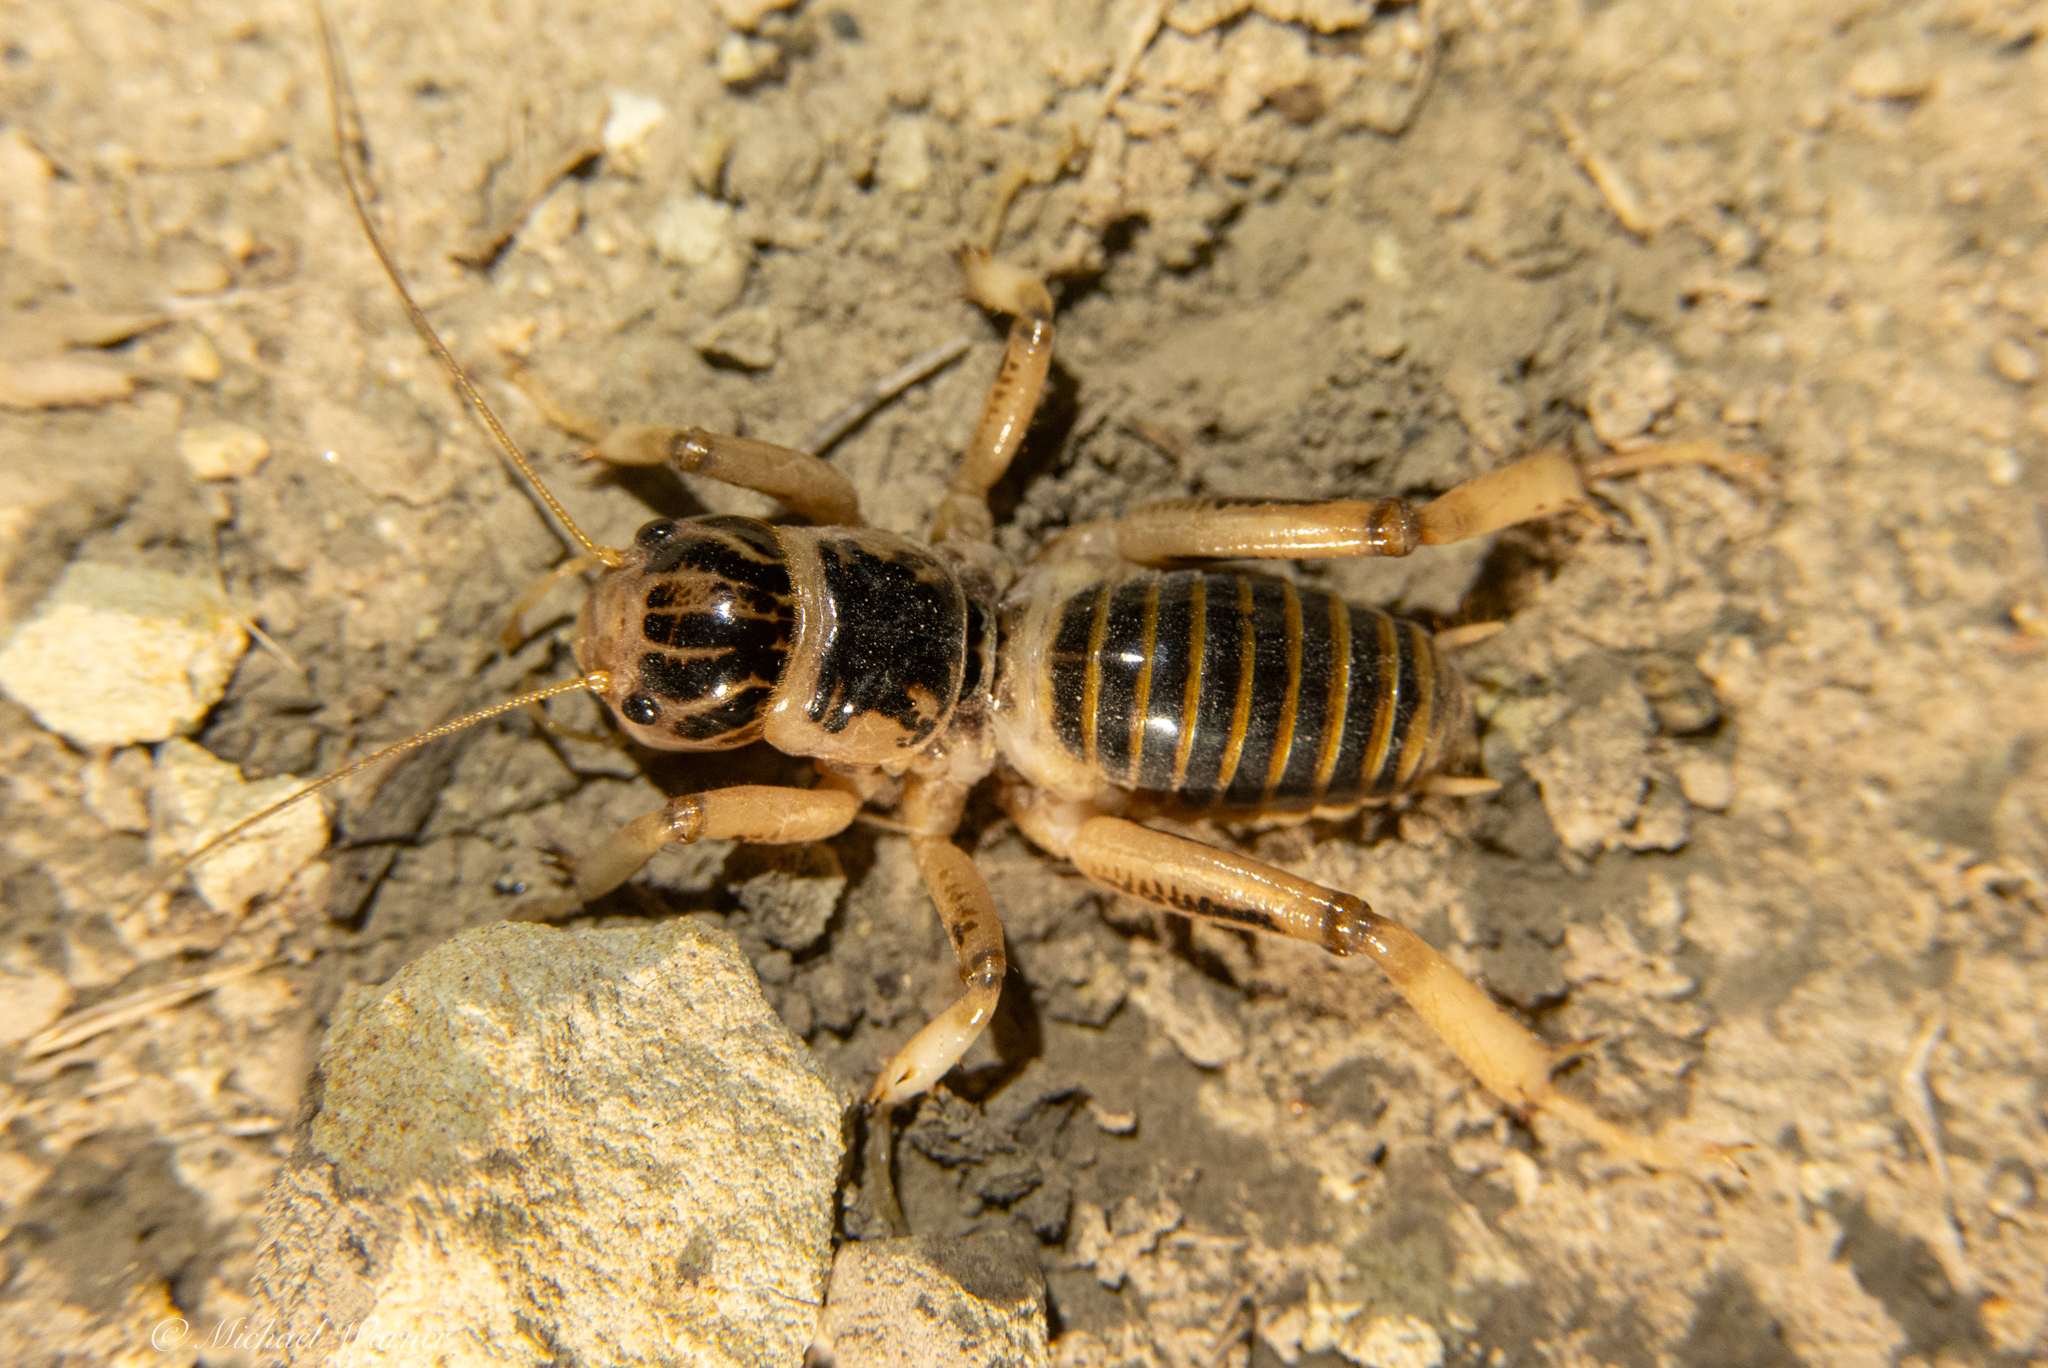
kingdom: Animalia
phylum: Arthropoda
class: Insecta
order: Orthoptera
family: Stenopelmatidae
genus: Ammopelmatus
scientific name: Ammopelmatus pictus
